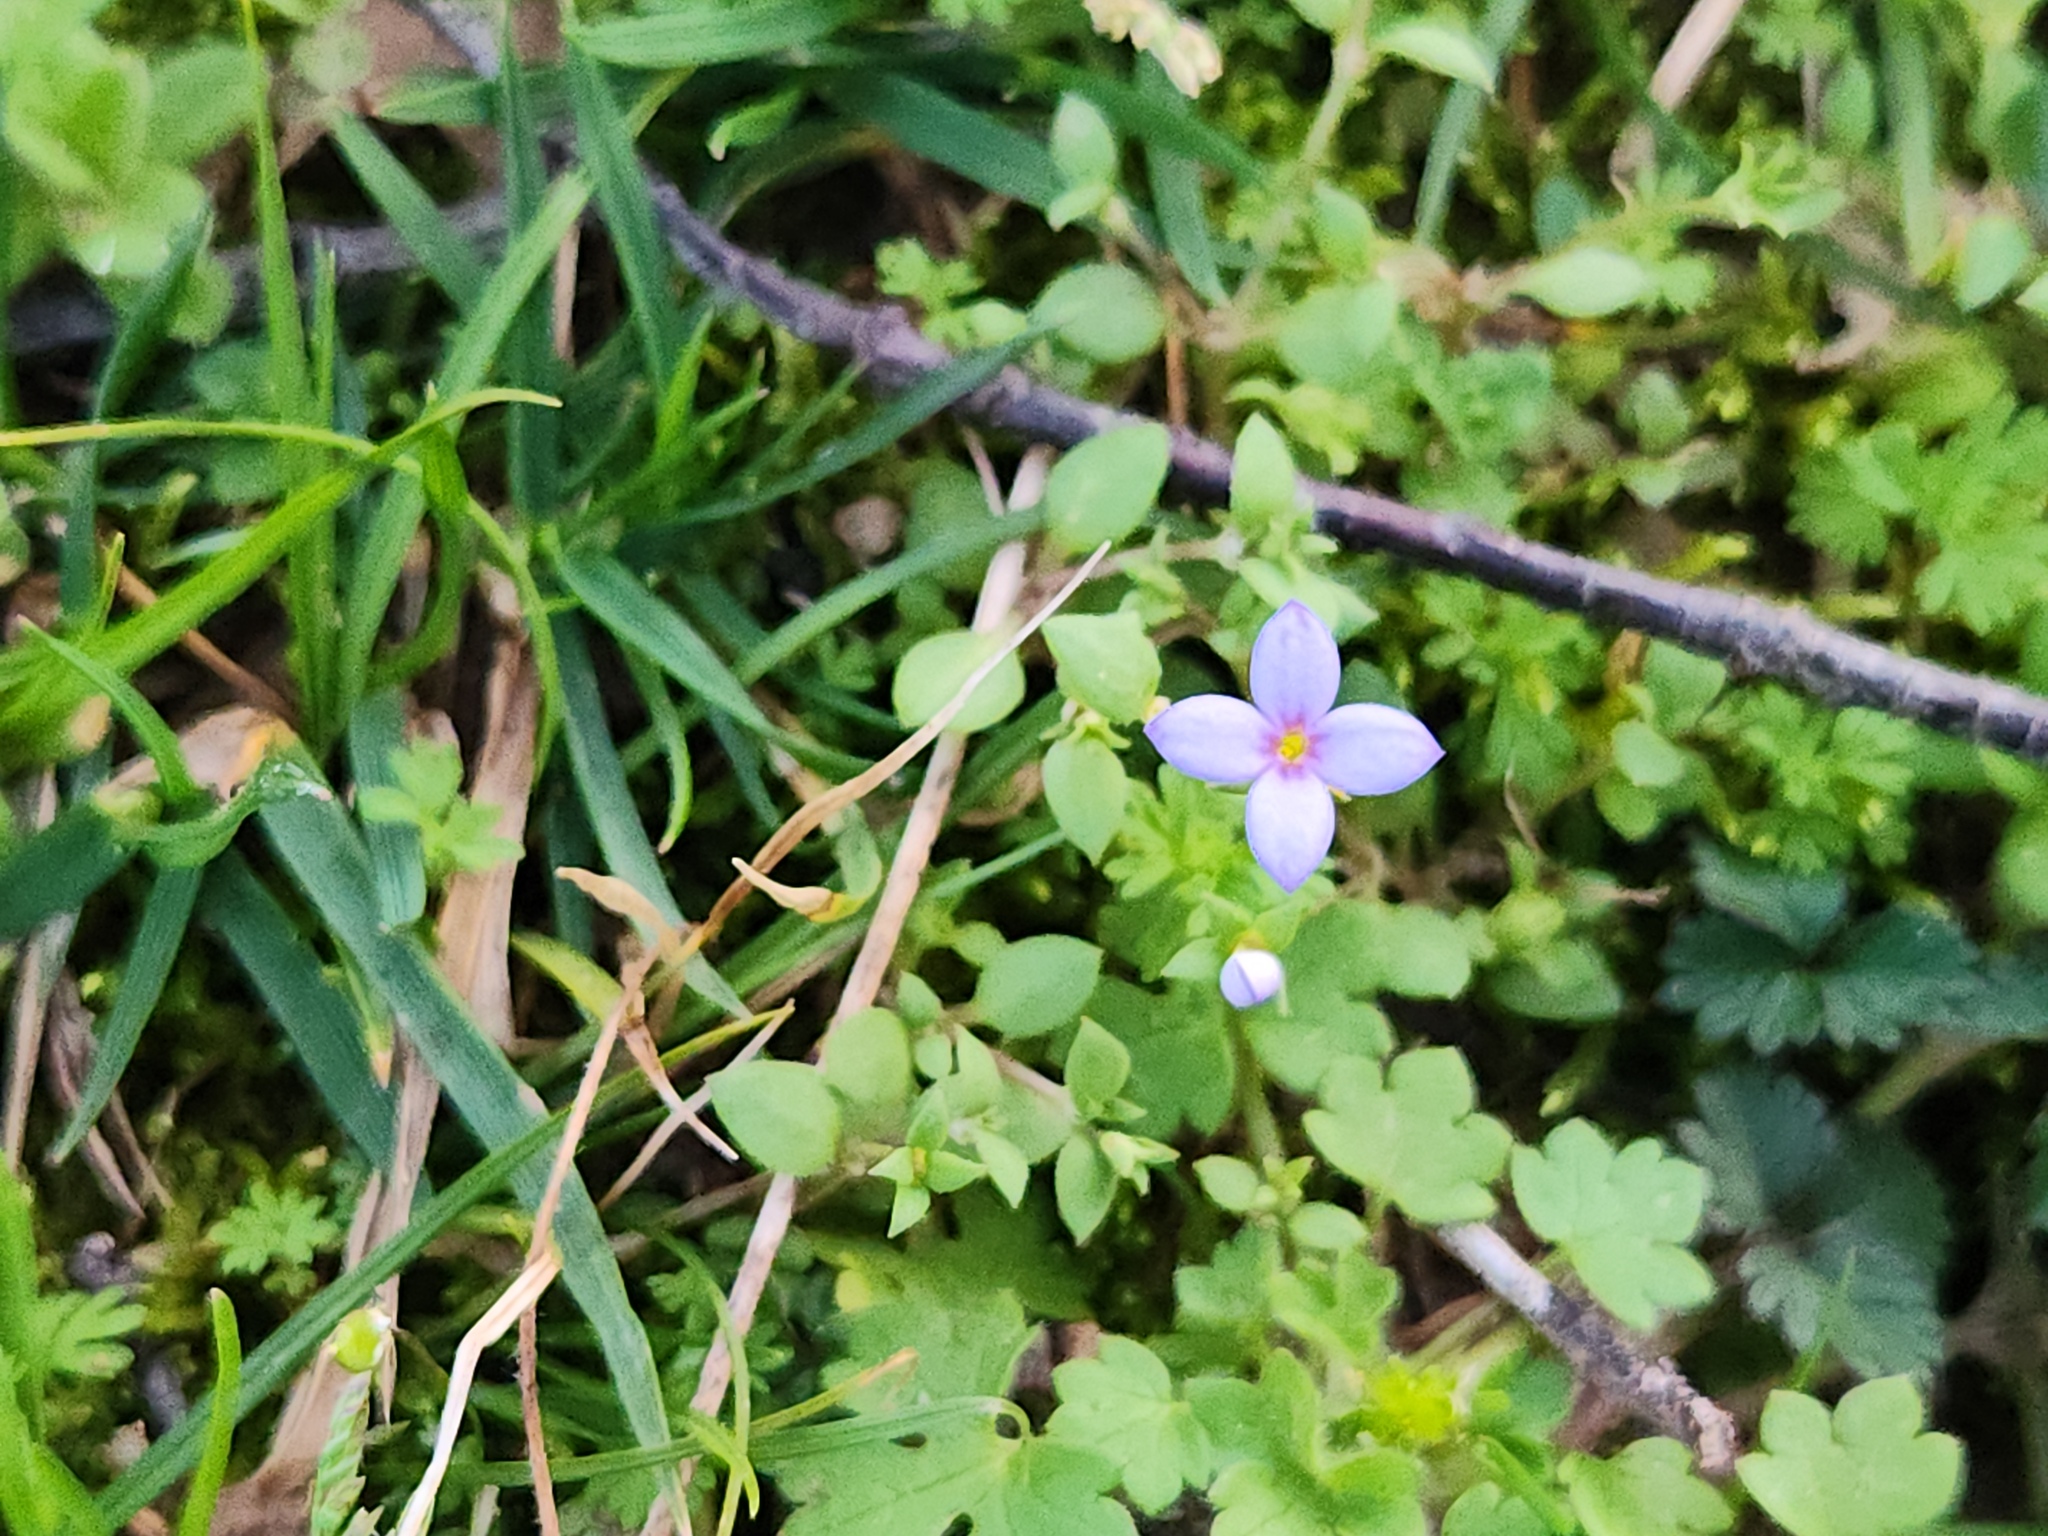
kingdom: Plantae
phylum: Tracheophyta
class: Magnoliopsida
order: Gentianales
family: Rubiaceae
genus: Houstonia
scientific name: Houstonia pusilla
